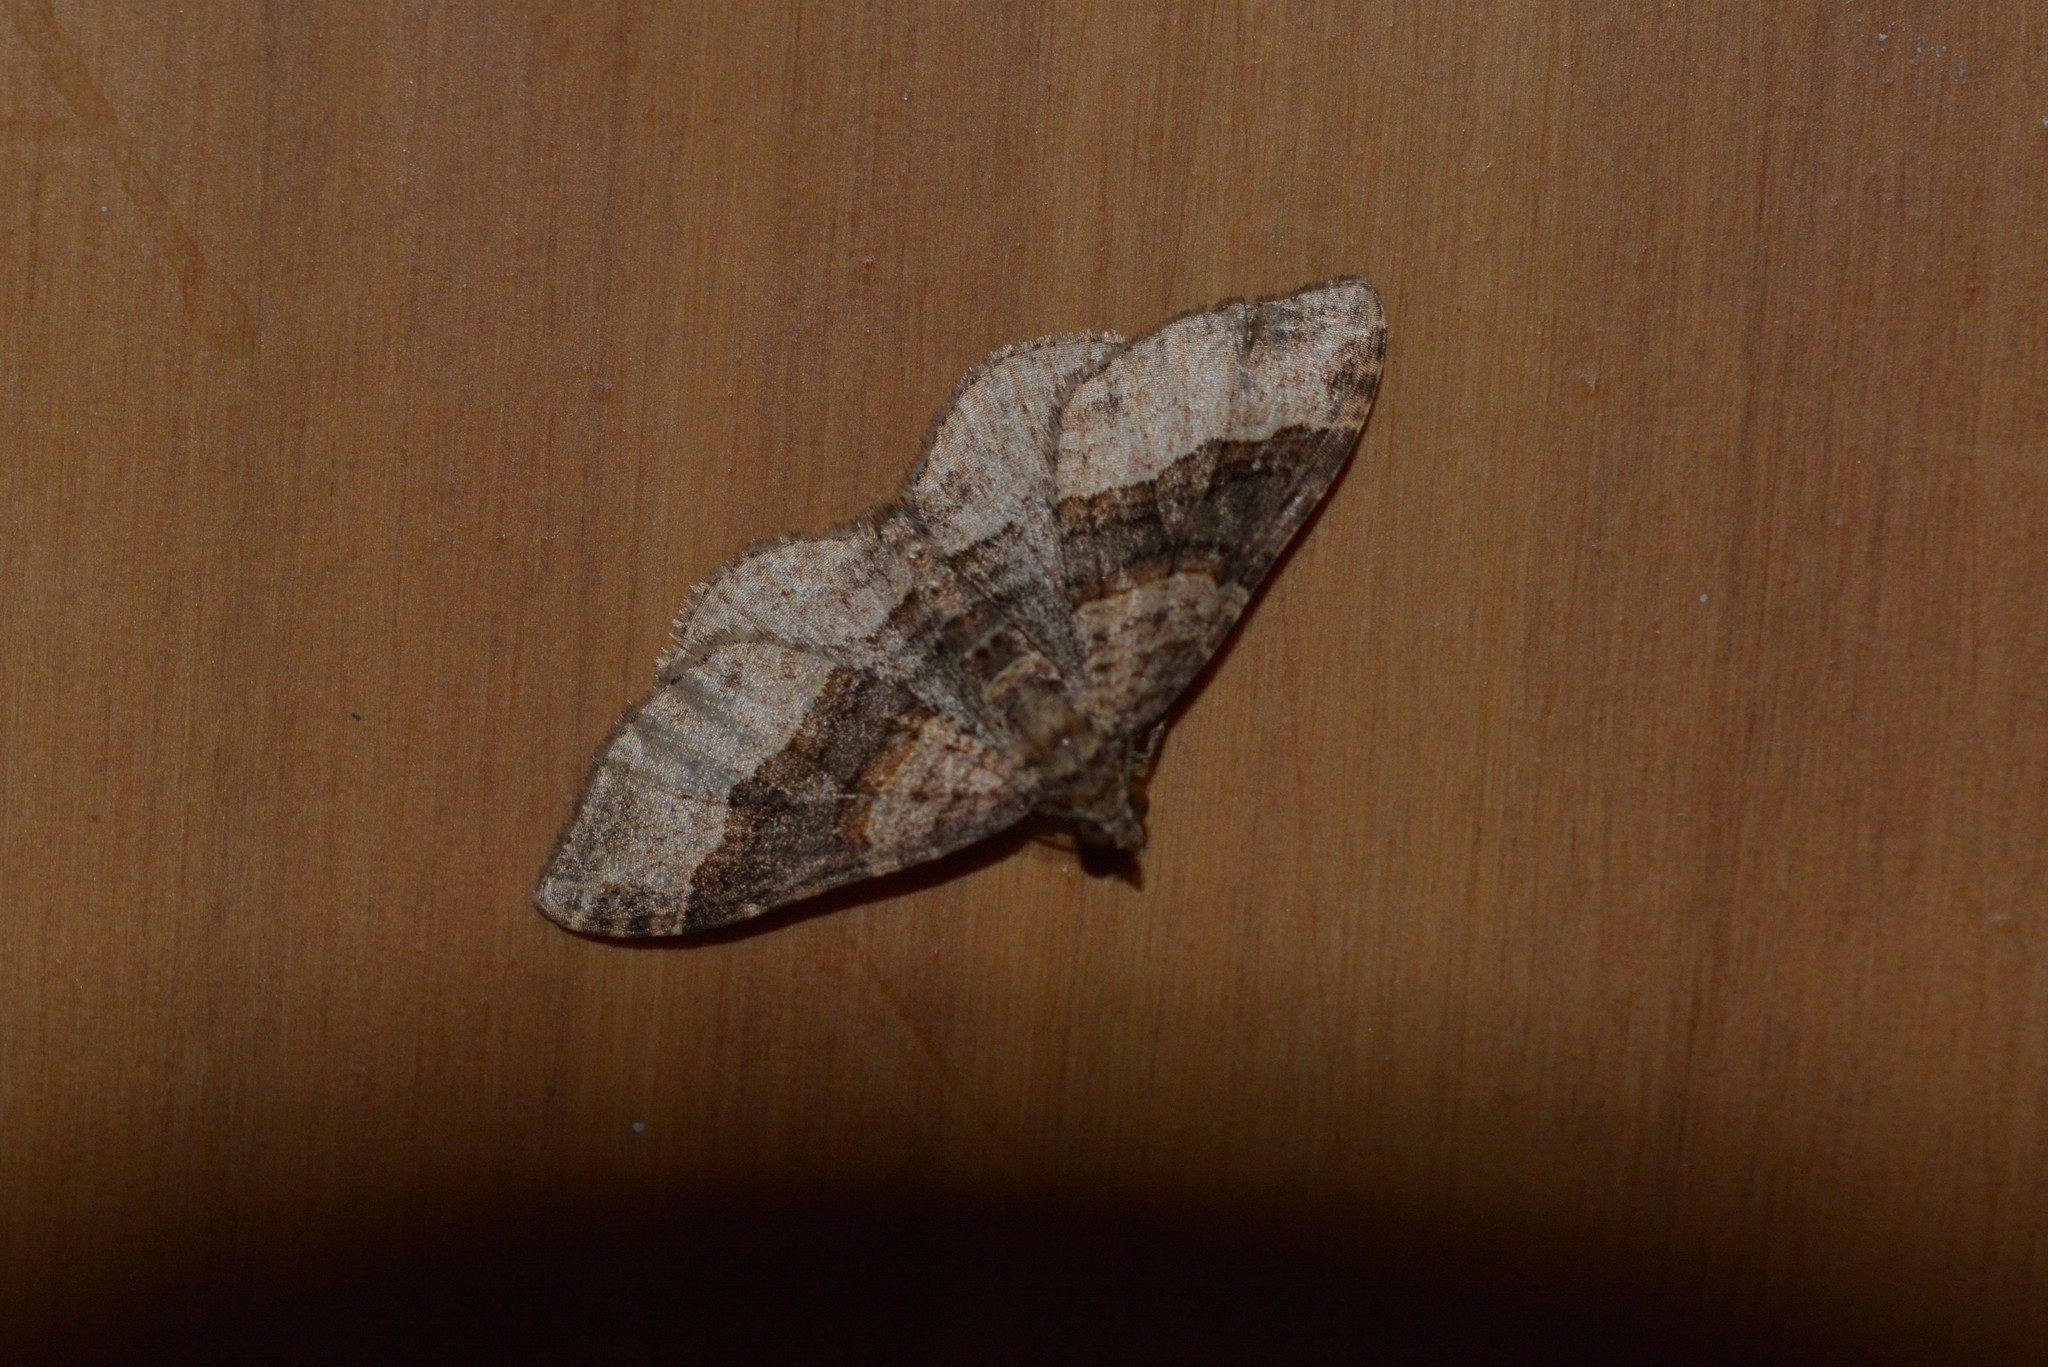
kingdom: Animalia
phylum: Arthropoda
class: Insecta
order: Lepidoptera
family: Geometridae
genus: Epyaxa
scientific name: Epyaxa lucidata
